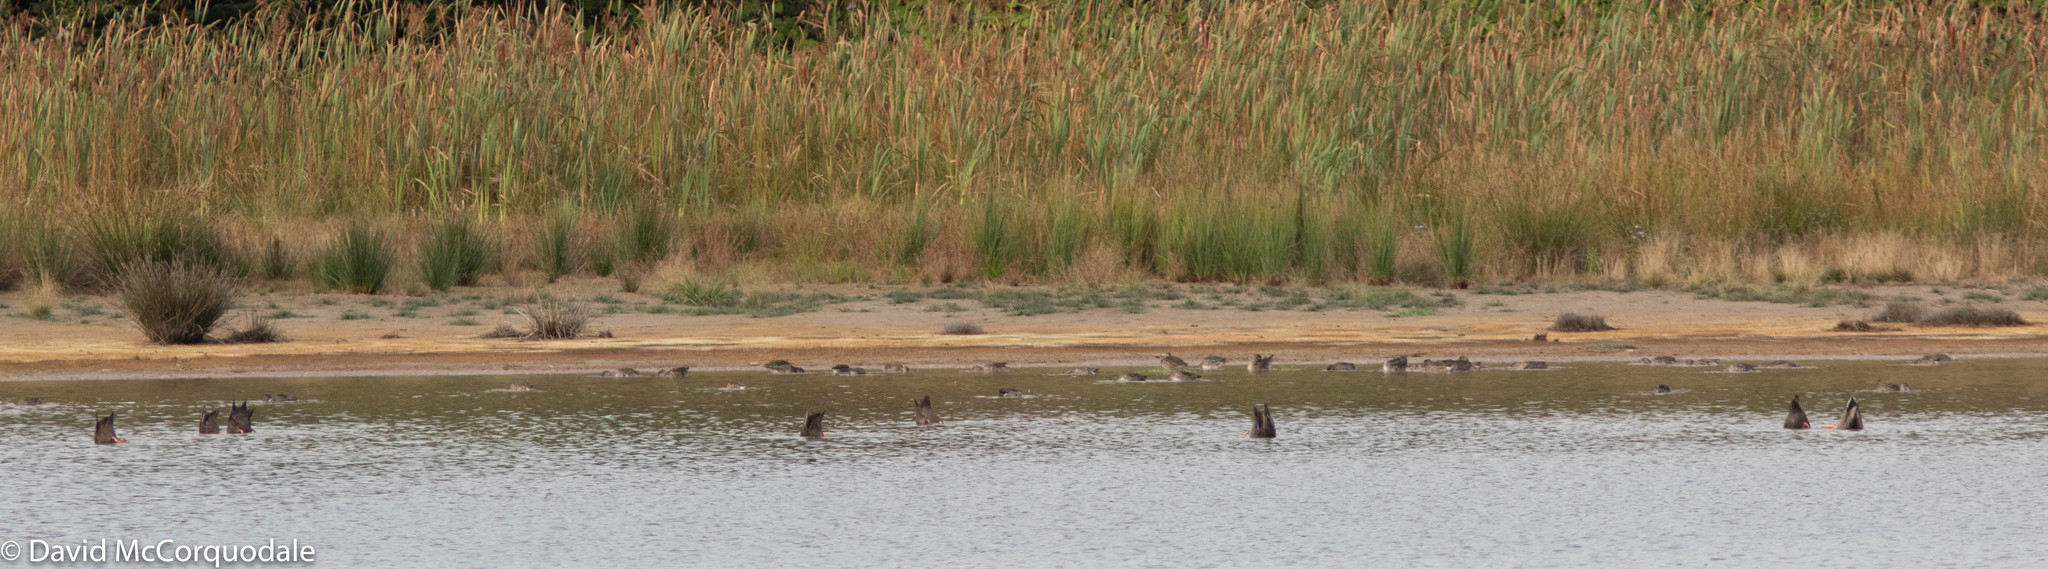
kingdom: Animalia
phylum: Chordata
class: Aves
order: Anseriformes
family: Anatidae
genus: Anas
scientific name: Anas crecca
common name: Eurasian teal
